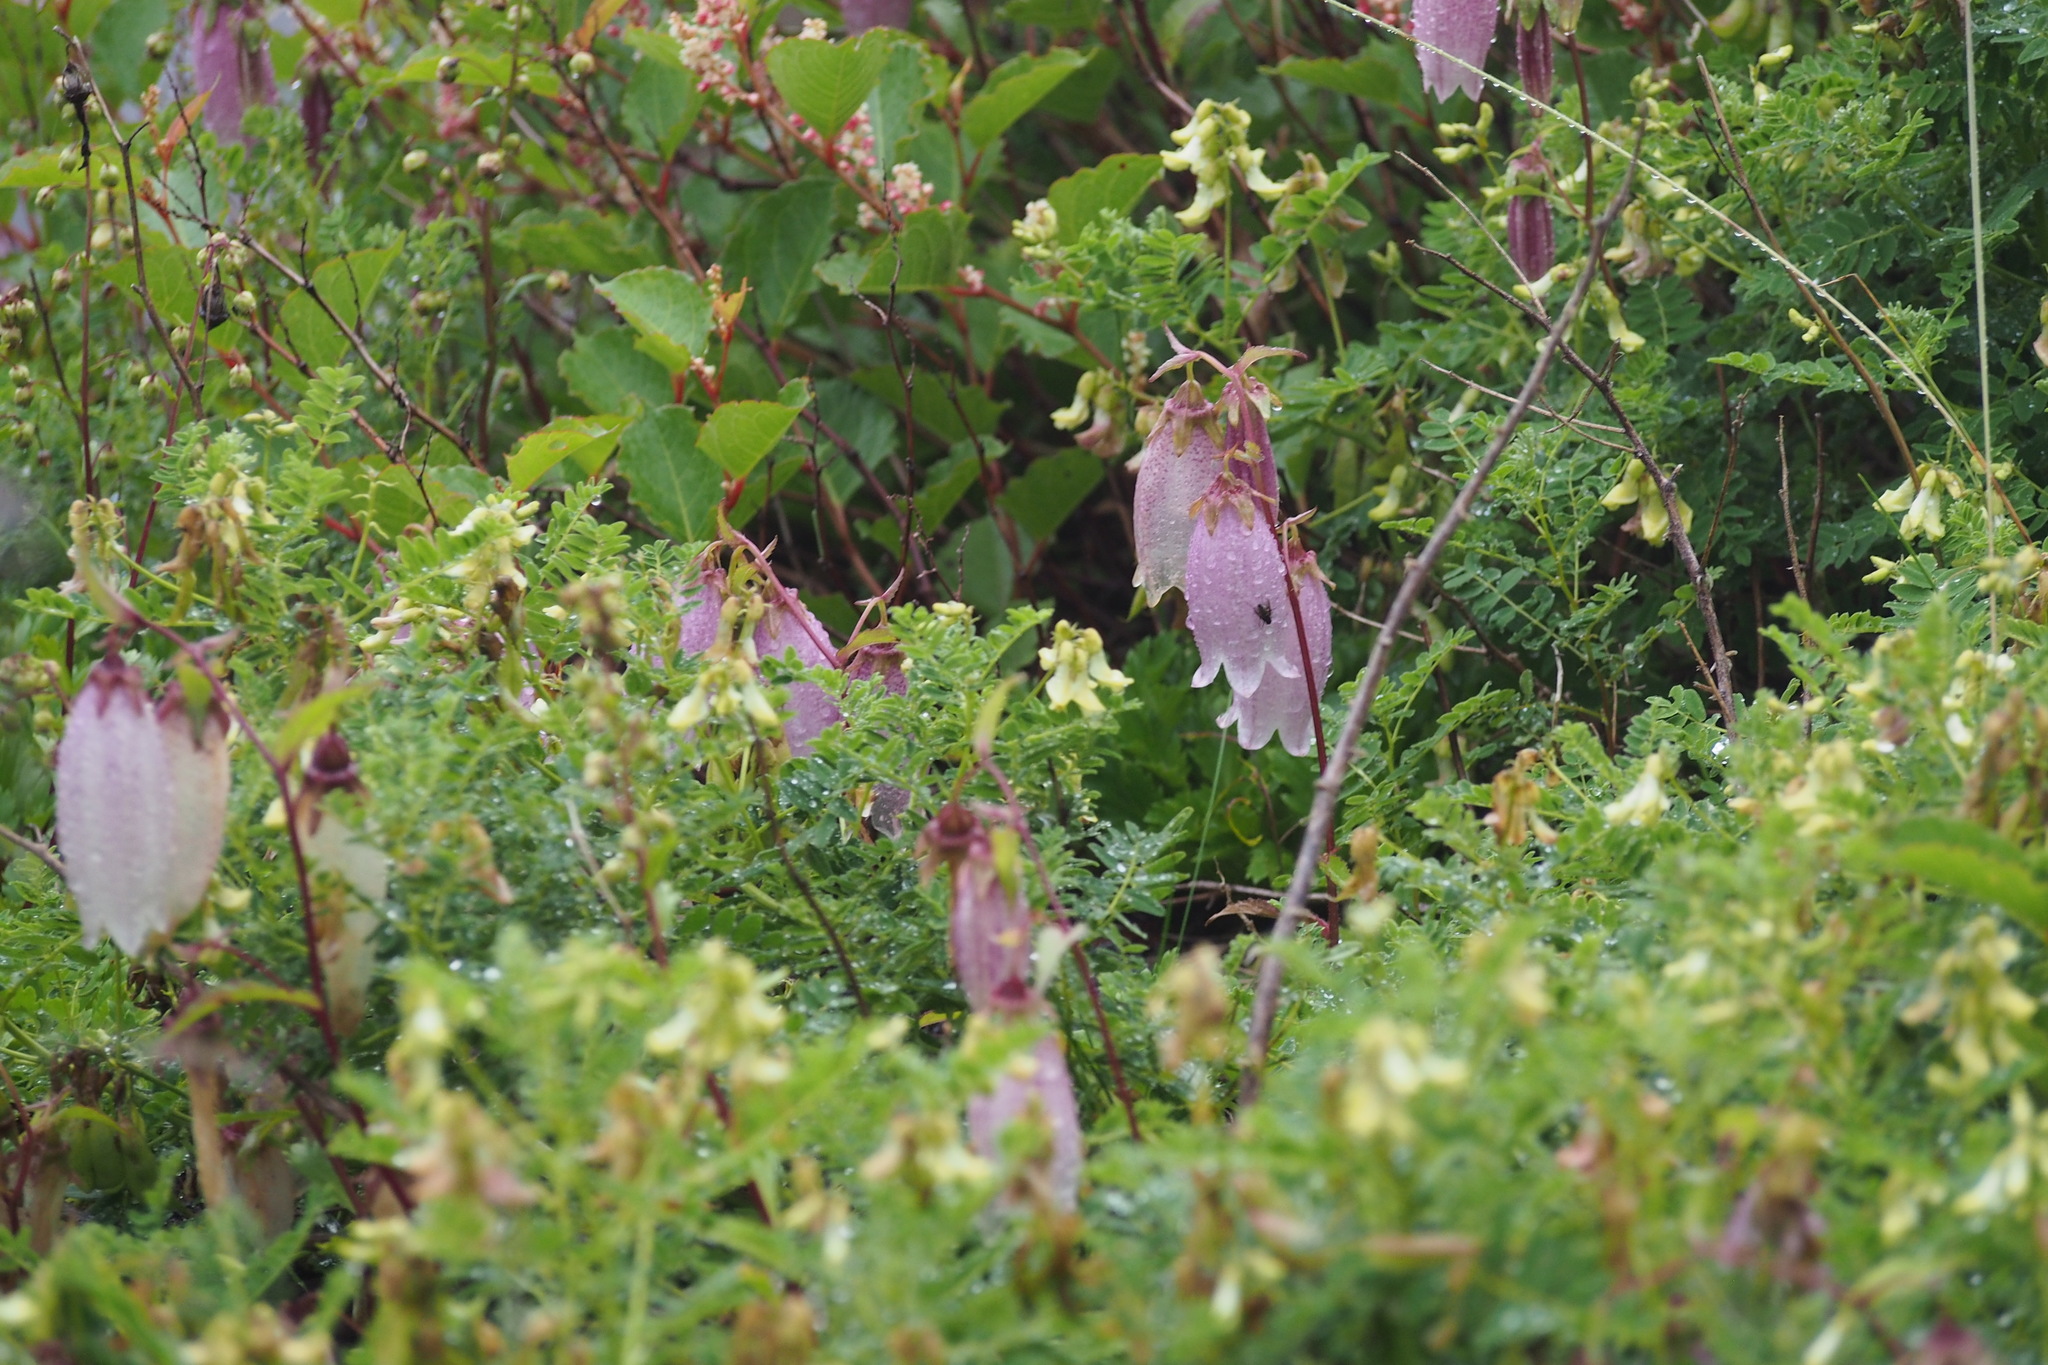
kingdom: Plantae
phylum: Tracheophyta
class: Magnoliopsida
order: Asterales
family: Campanulaceae
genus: Campanula
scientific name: Campanula punctata
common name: Spotted bellflower
